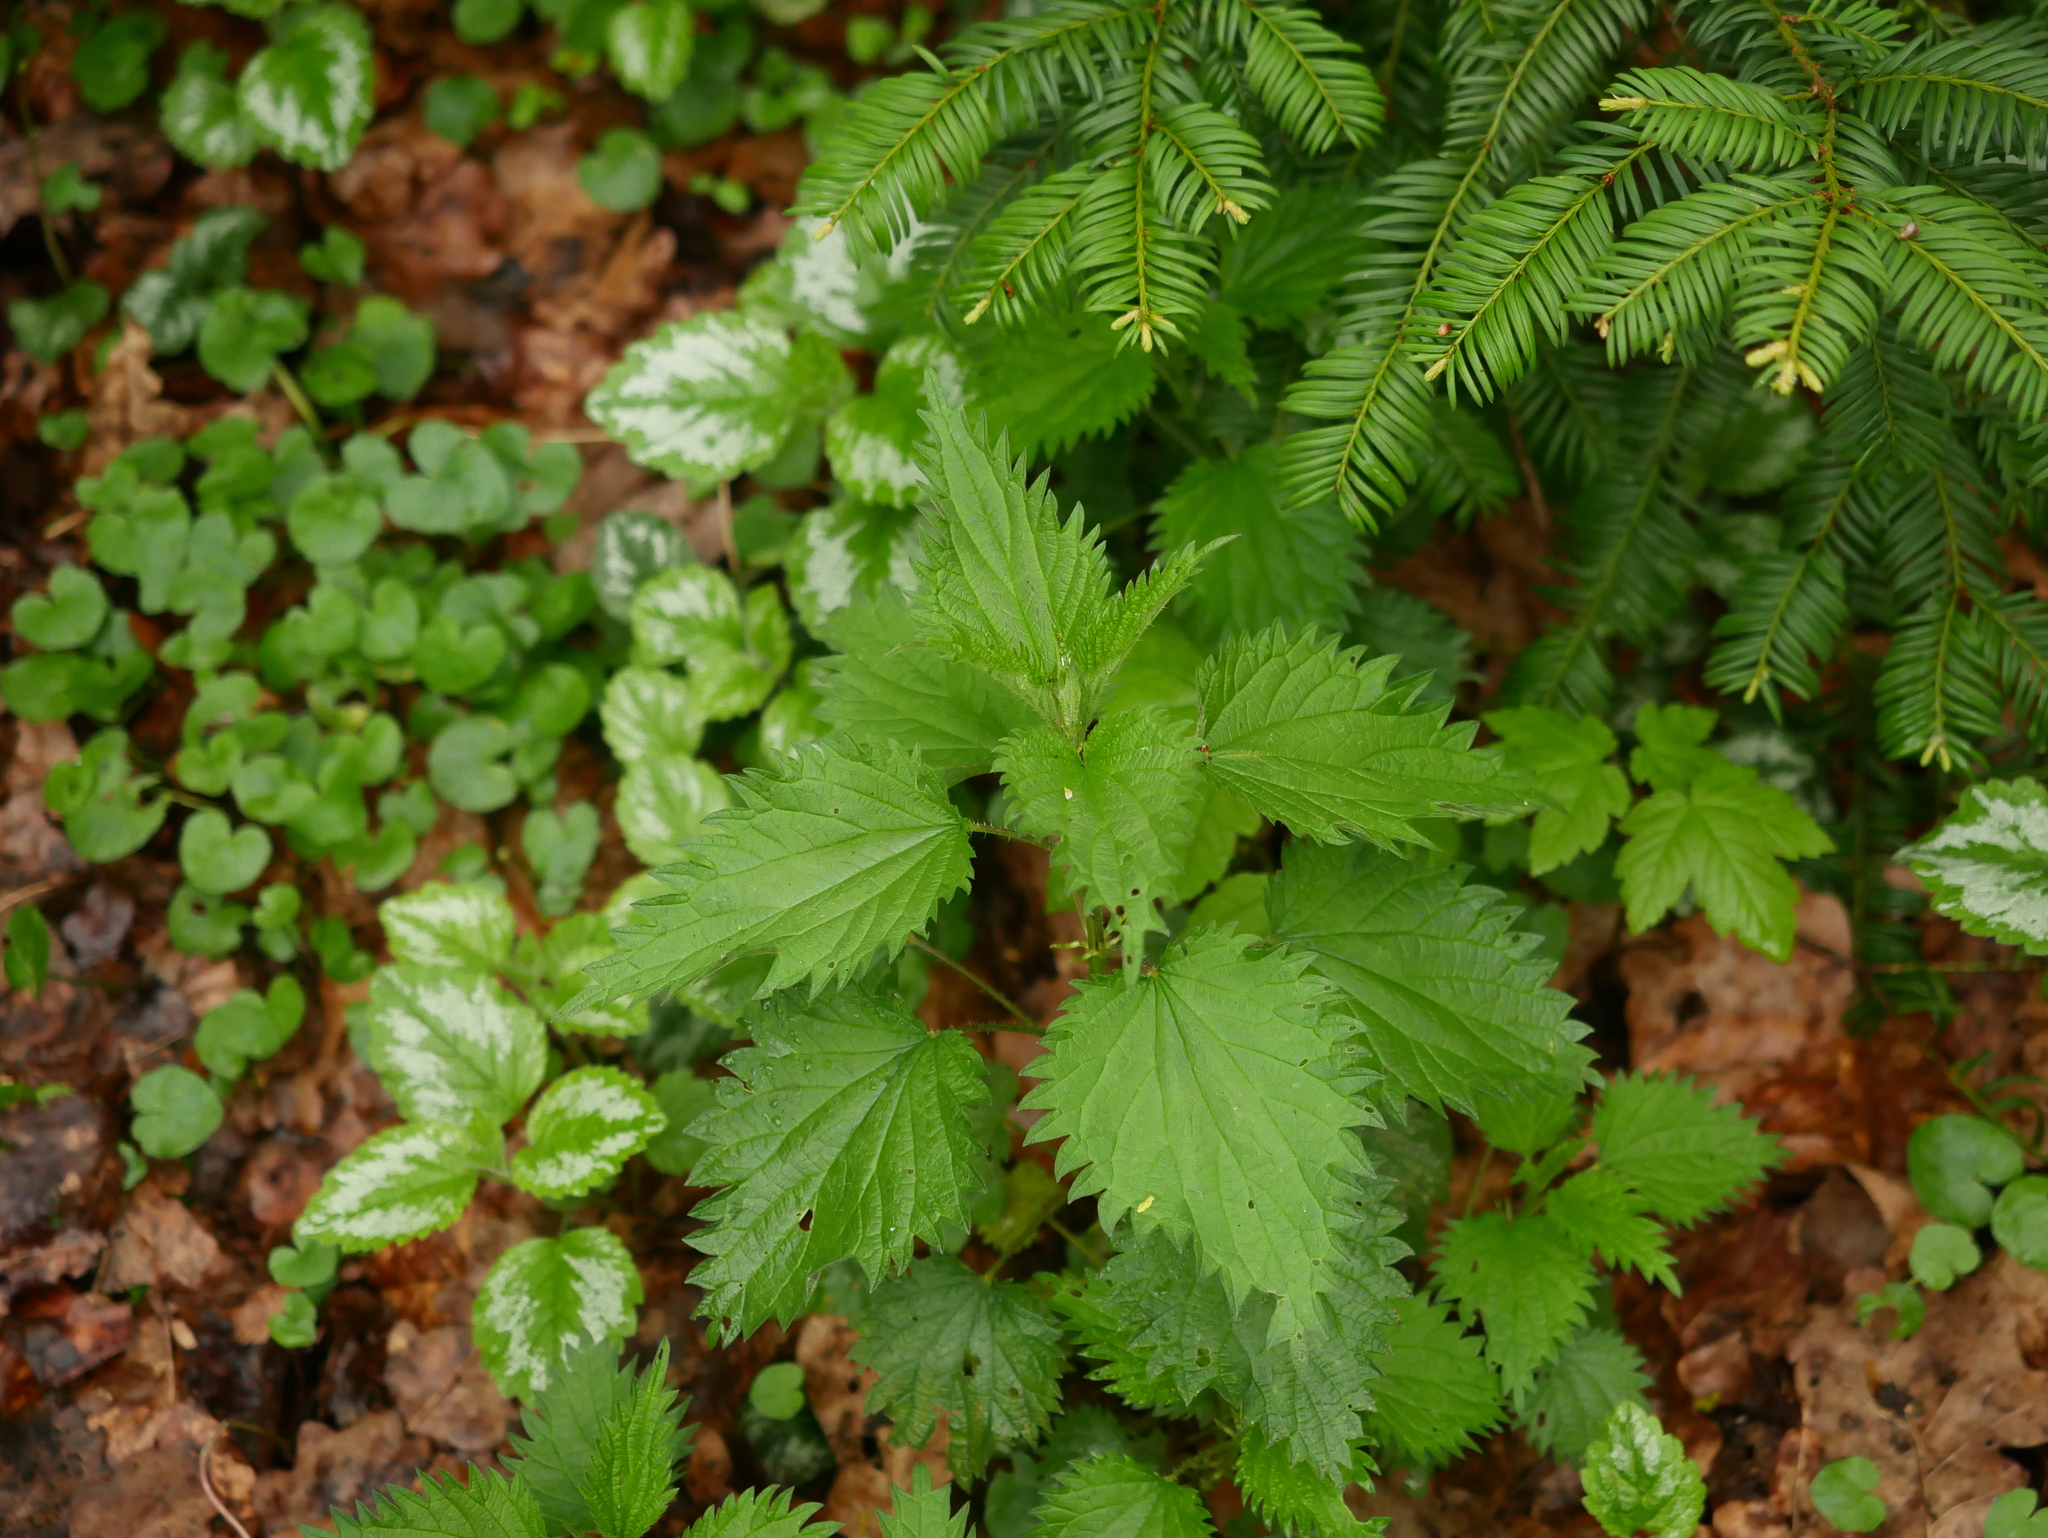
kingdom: Plantae
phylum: Tracheophyta
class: Magnoliopsida
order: Rosales
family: Urticaceae
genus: Urtica
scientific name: Urtica dioica
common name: Common nettle
